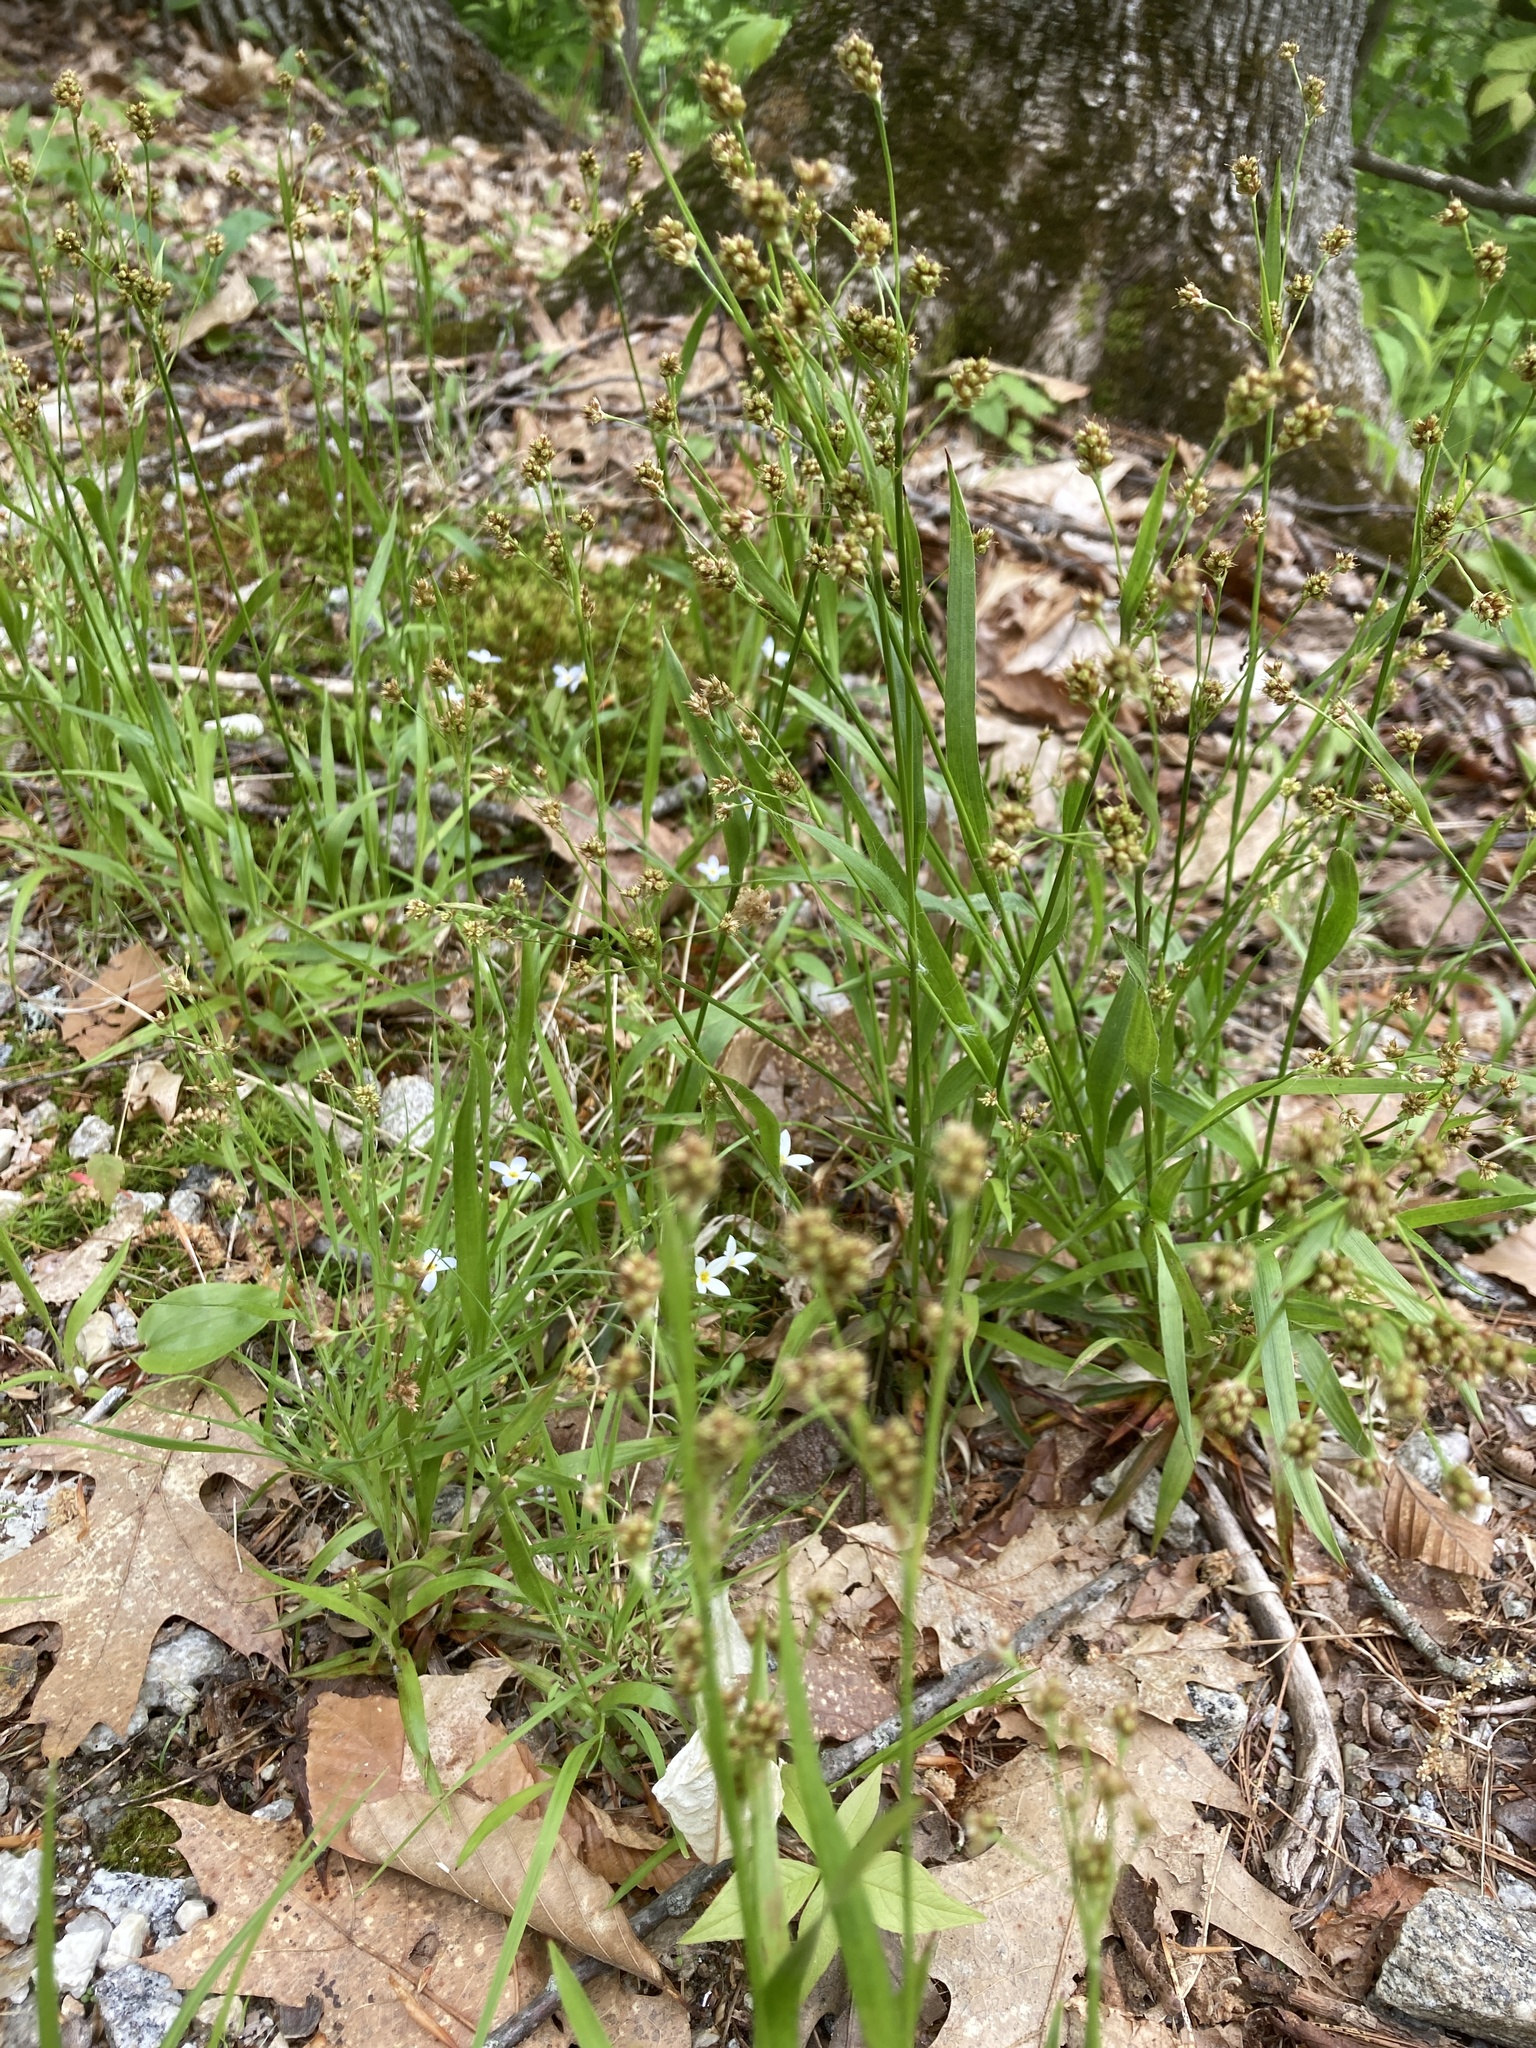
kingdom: Plantae
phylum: Tracheophyta
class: Liliopsida
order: Poales
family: Juncaceae
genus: Luzula
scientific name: Luzula multiflora
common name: Heath wood-rush
